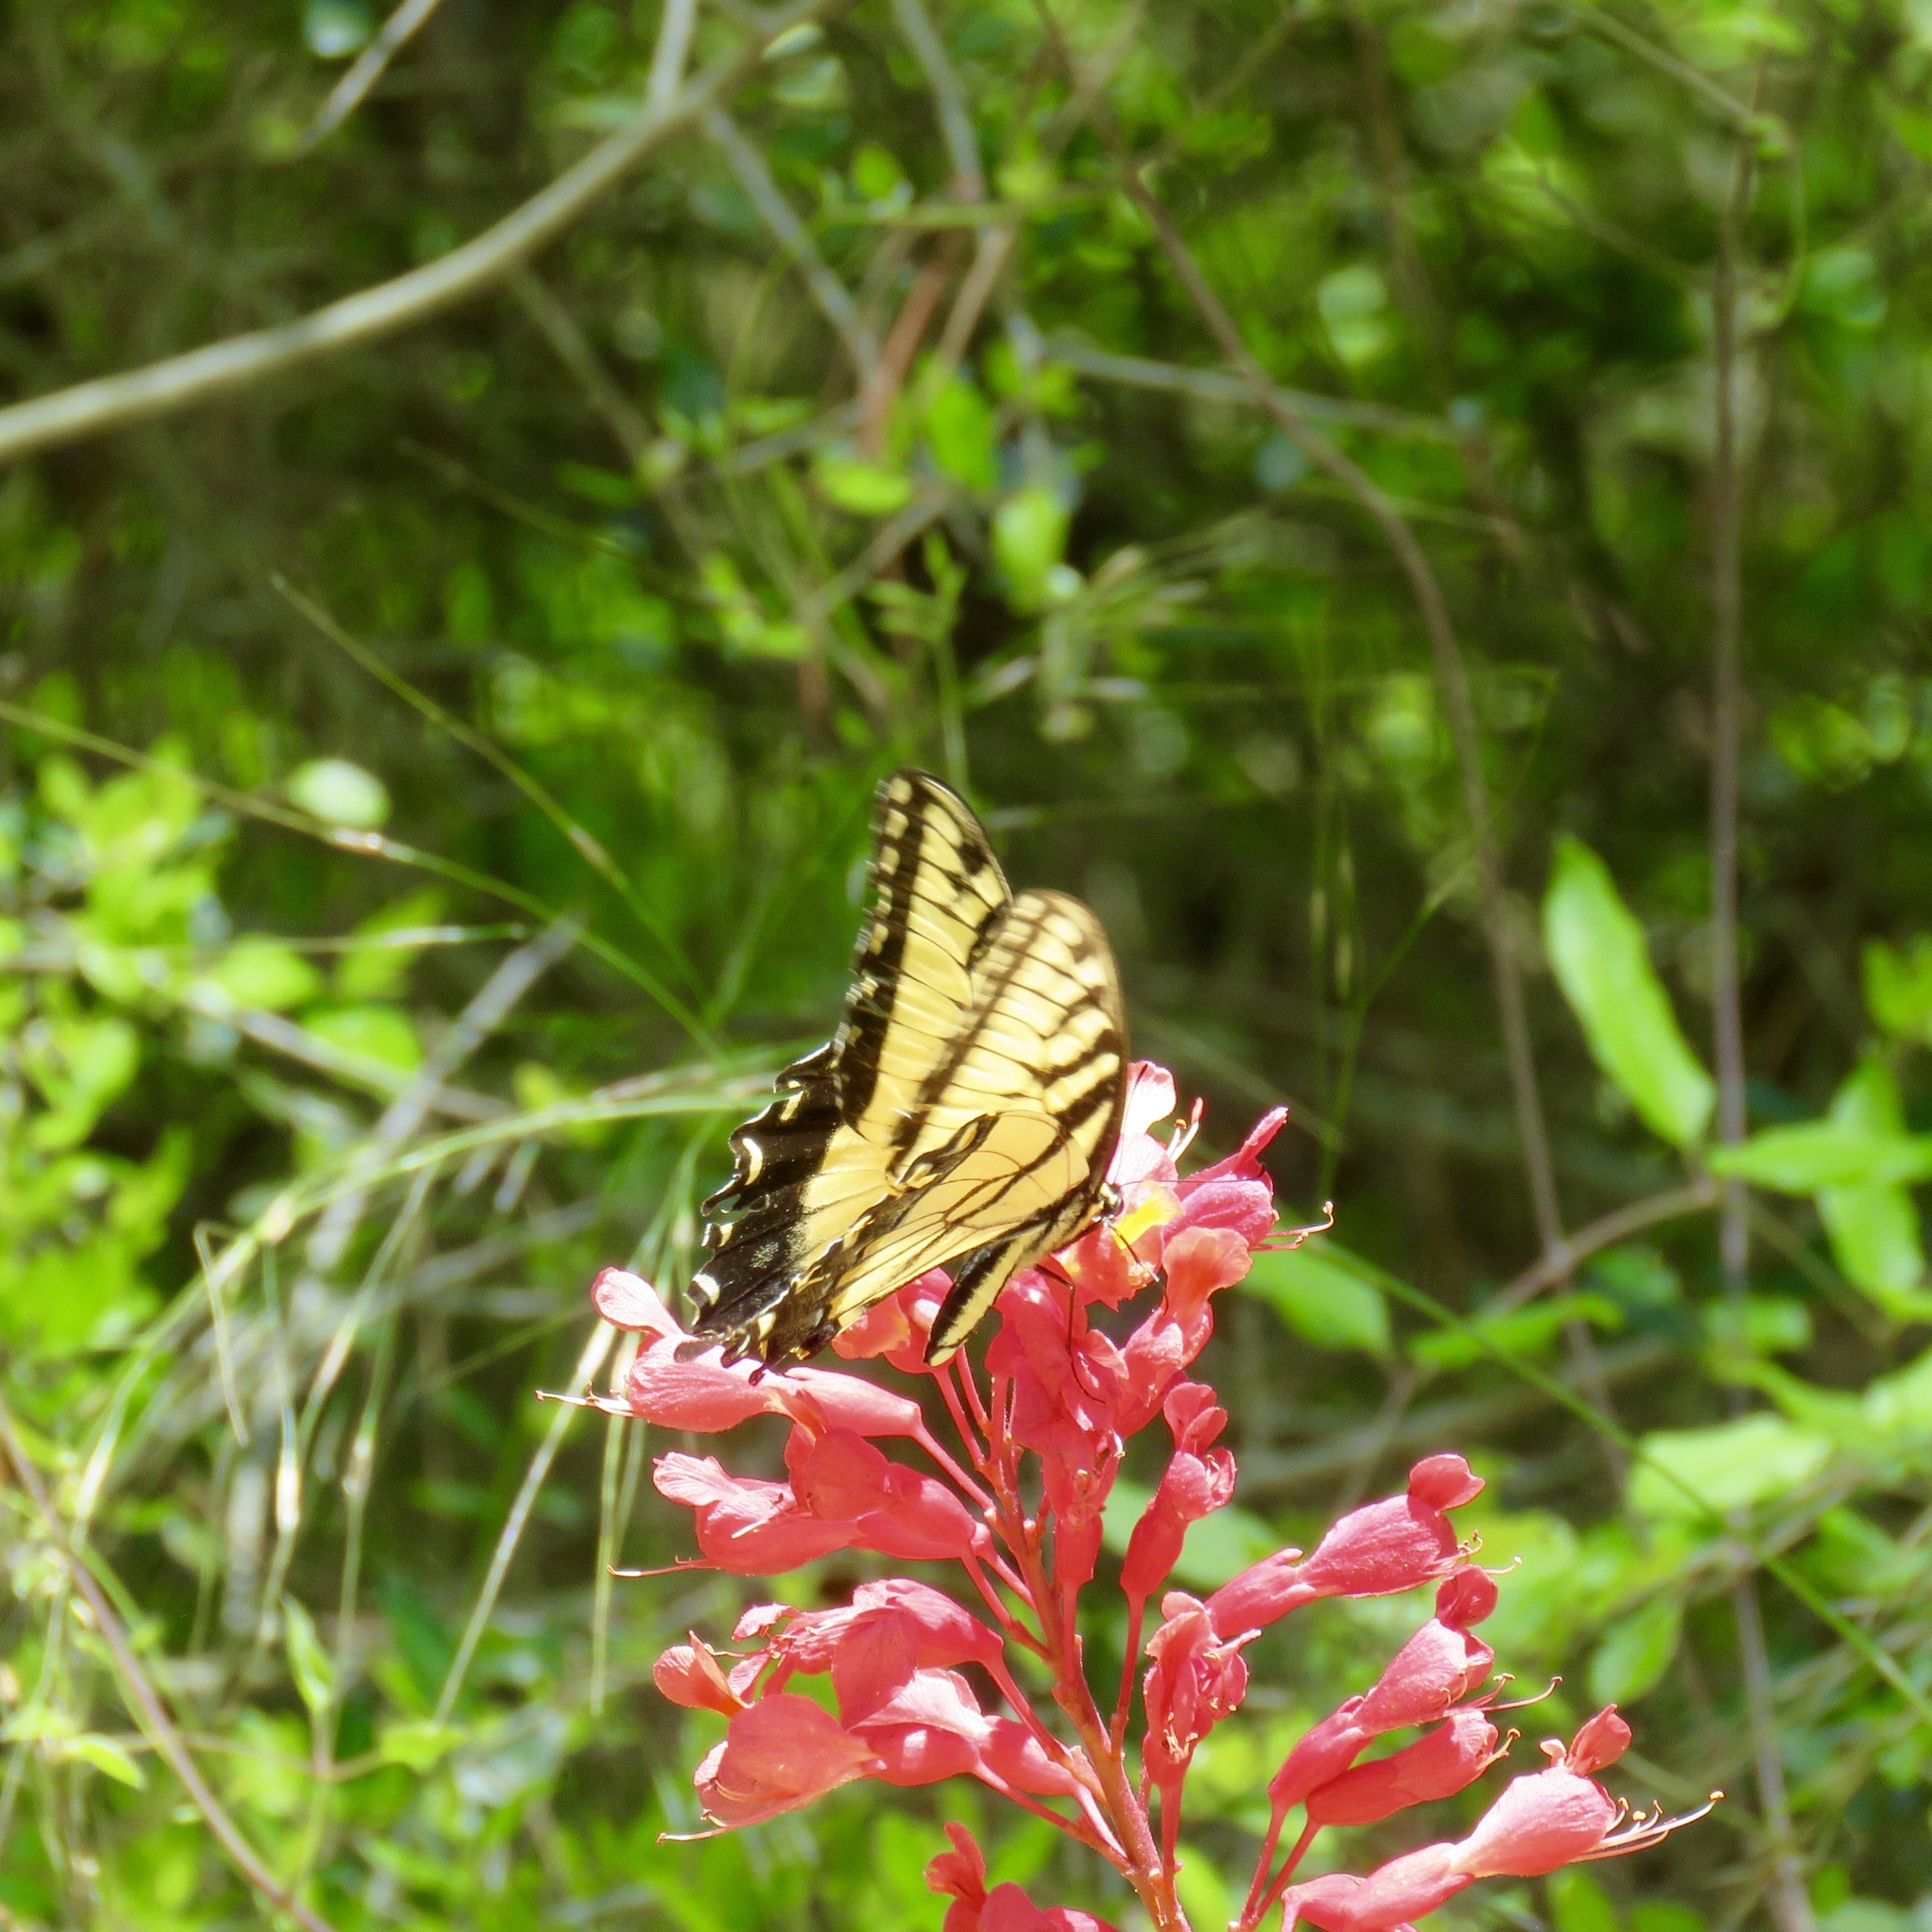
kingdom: Animalia
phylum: Arthropoda
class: Insecta
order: Lepidoptera
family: Papilionidae
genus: Papilio
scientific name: Papilio glaucus
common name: Tiger swallowtail
